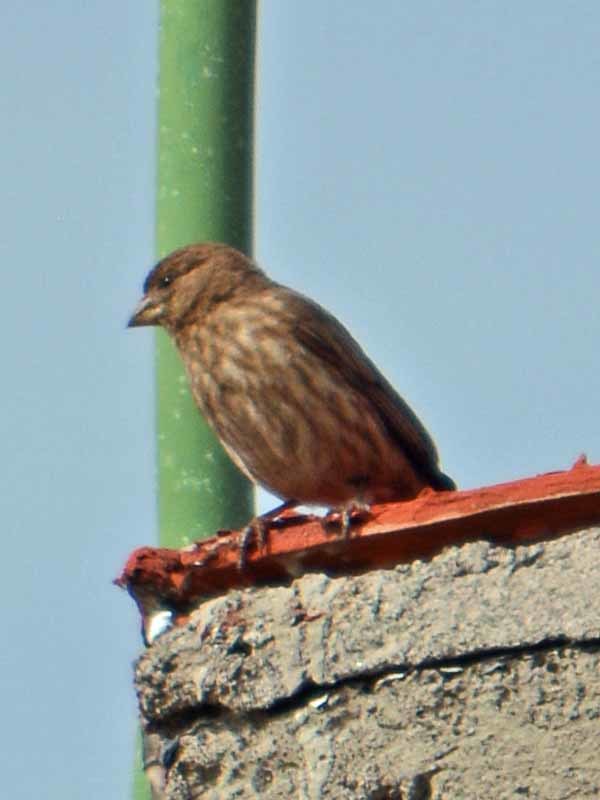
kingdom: Animalia
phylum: Chordata
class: Aves
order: Passeriformes
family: Fringillidae
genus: Haemorhous
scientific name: Haemorhous mexicanus
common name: House finch
